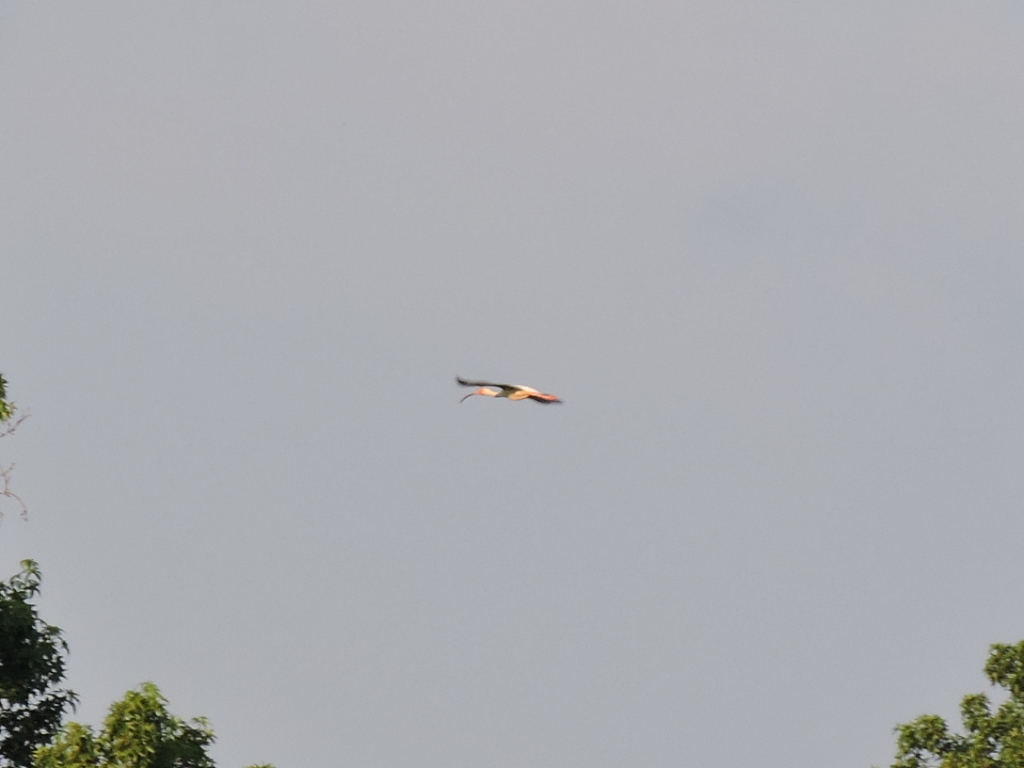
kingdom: Animalia
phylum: Chordata
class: Aves
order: Pelecaniformes
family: Threskiornithidae
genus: Eudocimus
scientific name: Eudocimus albus
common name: White ibis
